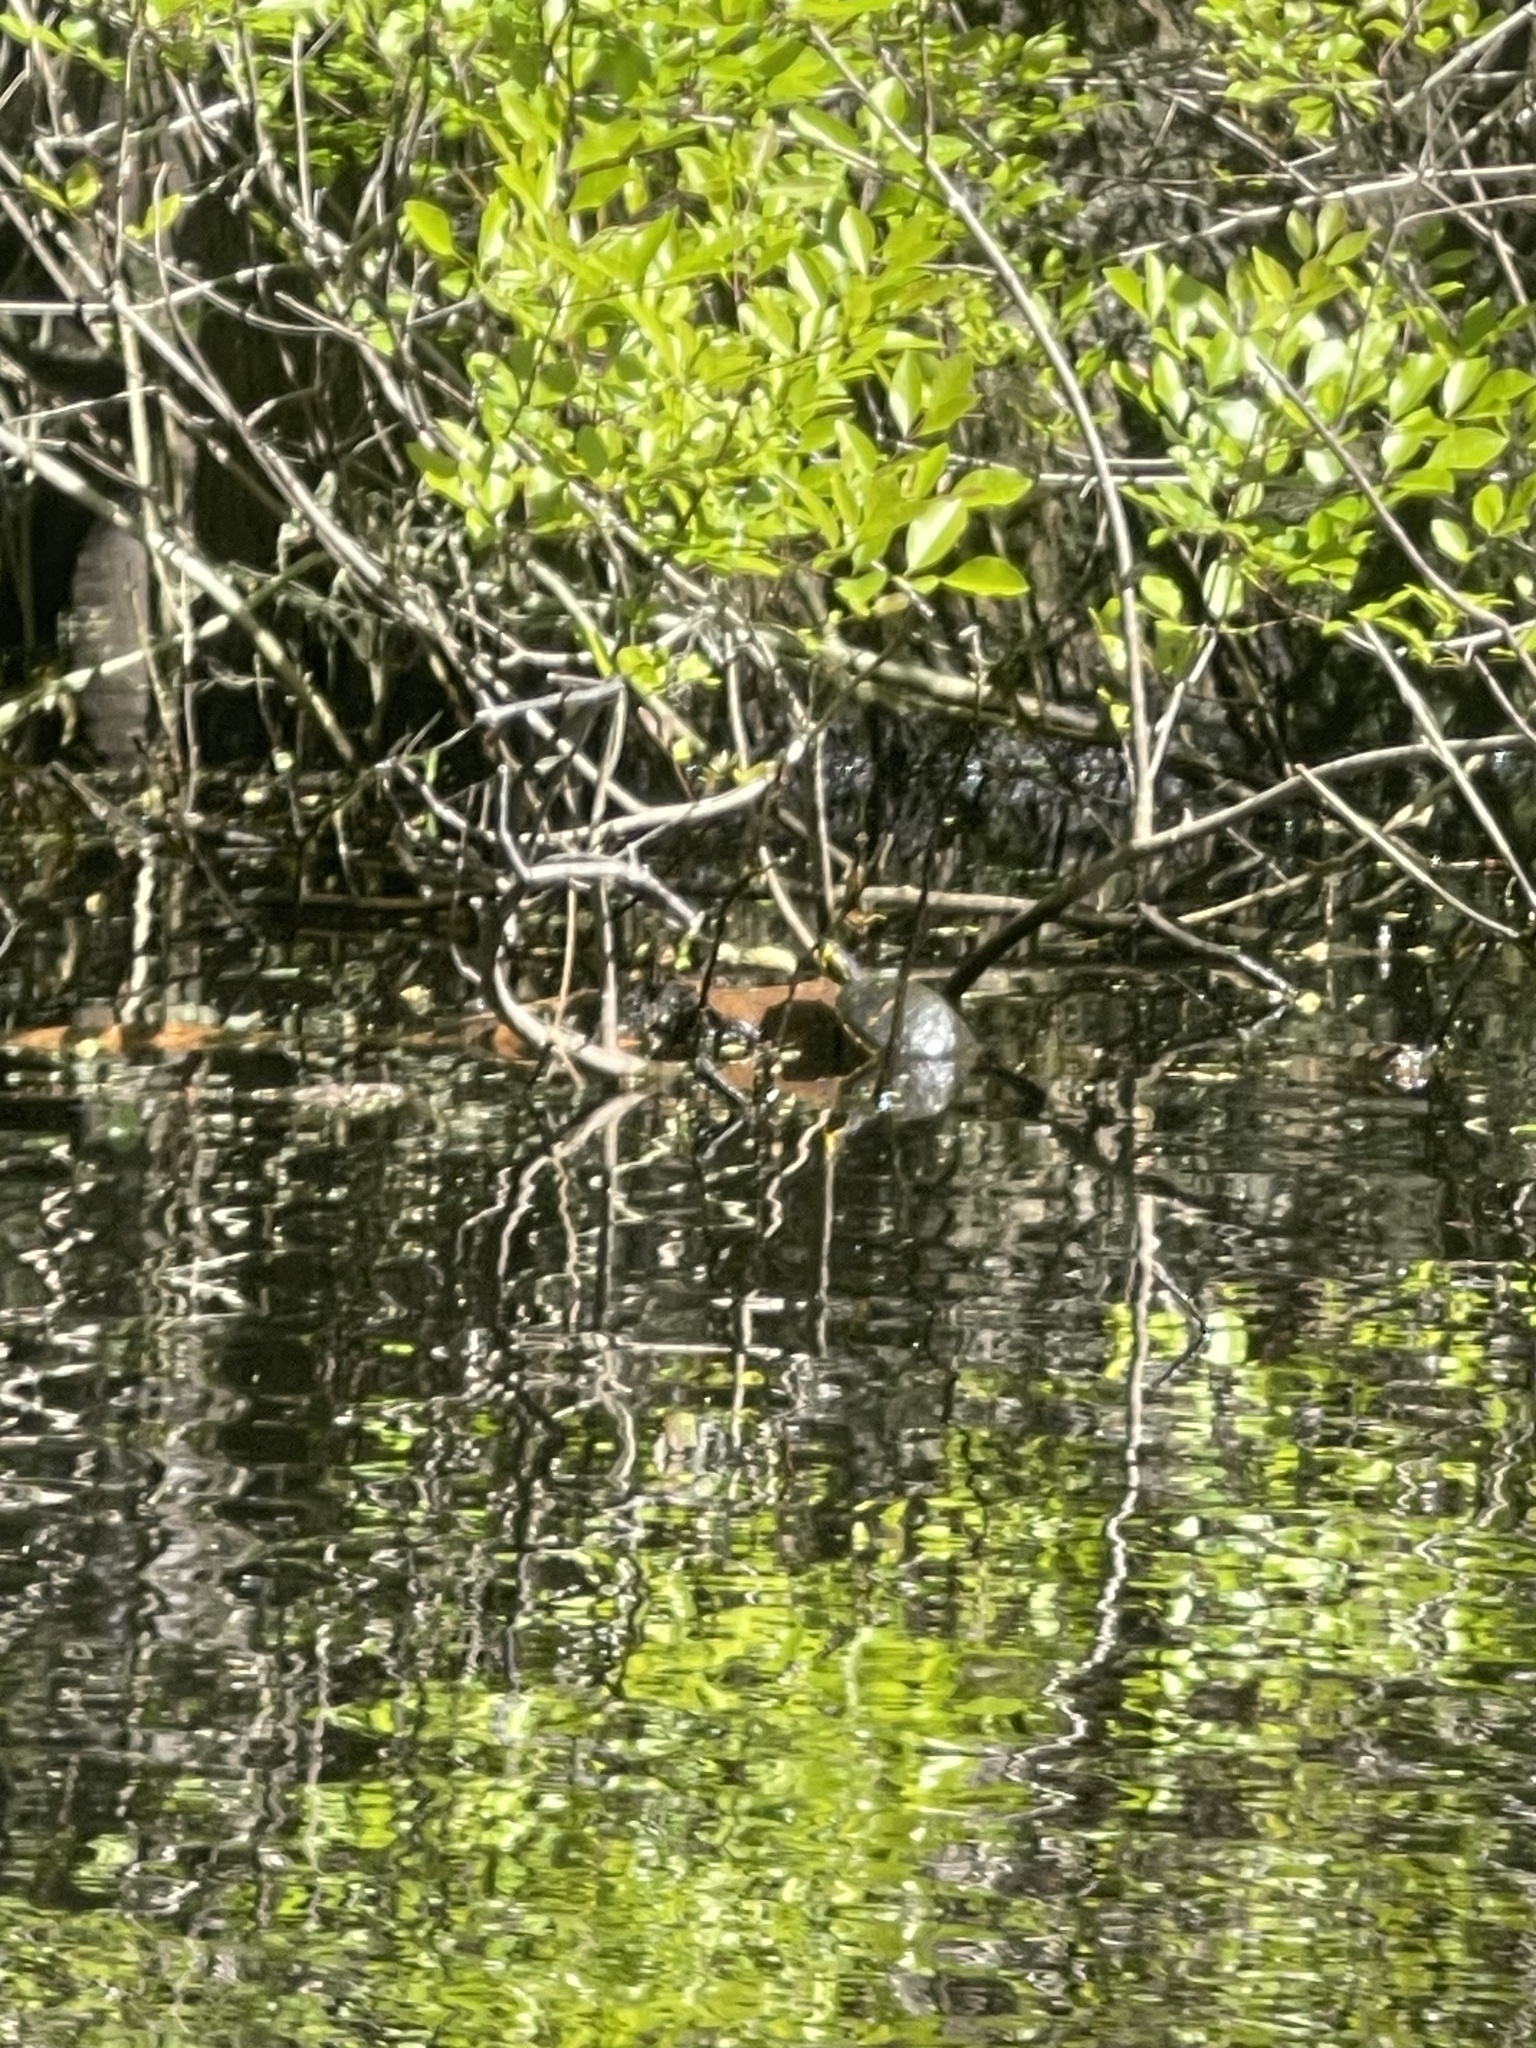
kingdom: Animalia
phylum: Chordata
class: Testudines
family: Emydidae
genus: Trachemys
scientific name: Trachemys scripta
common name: Slider
